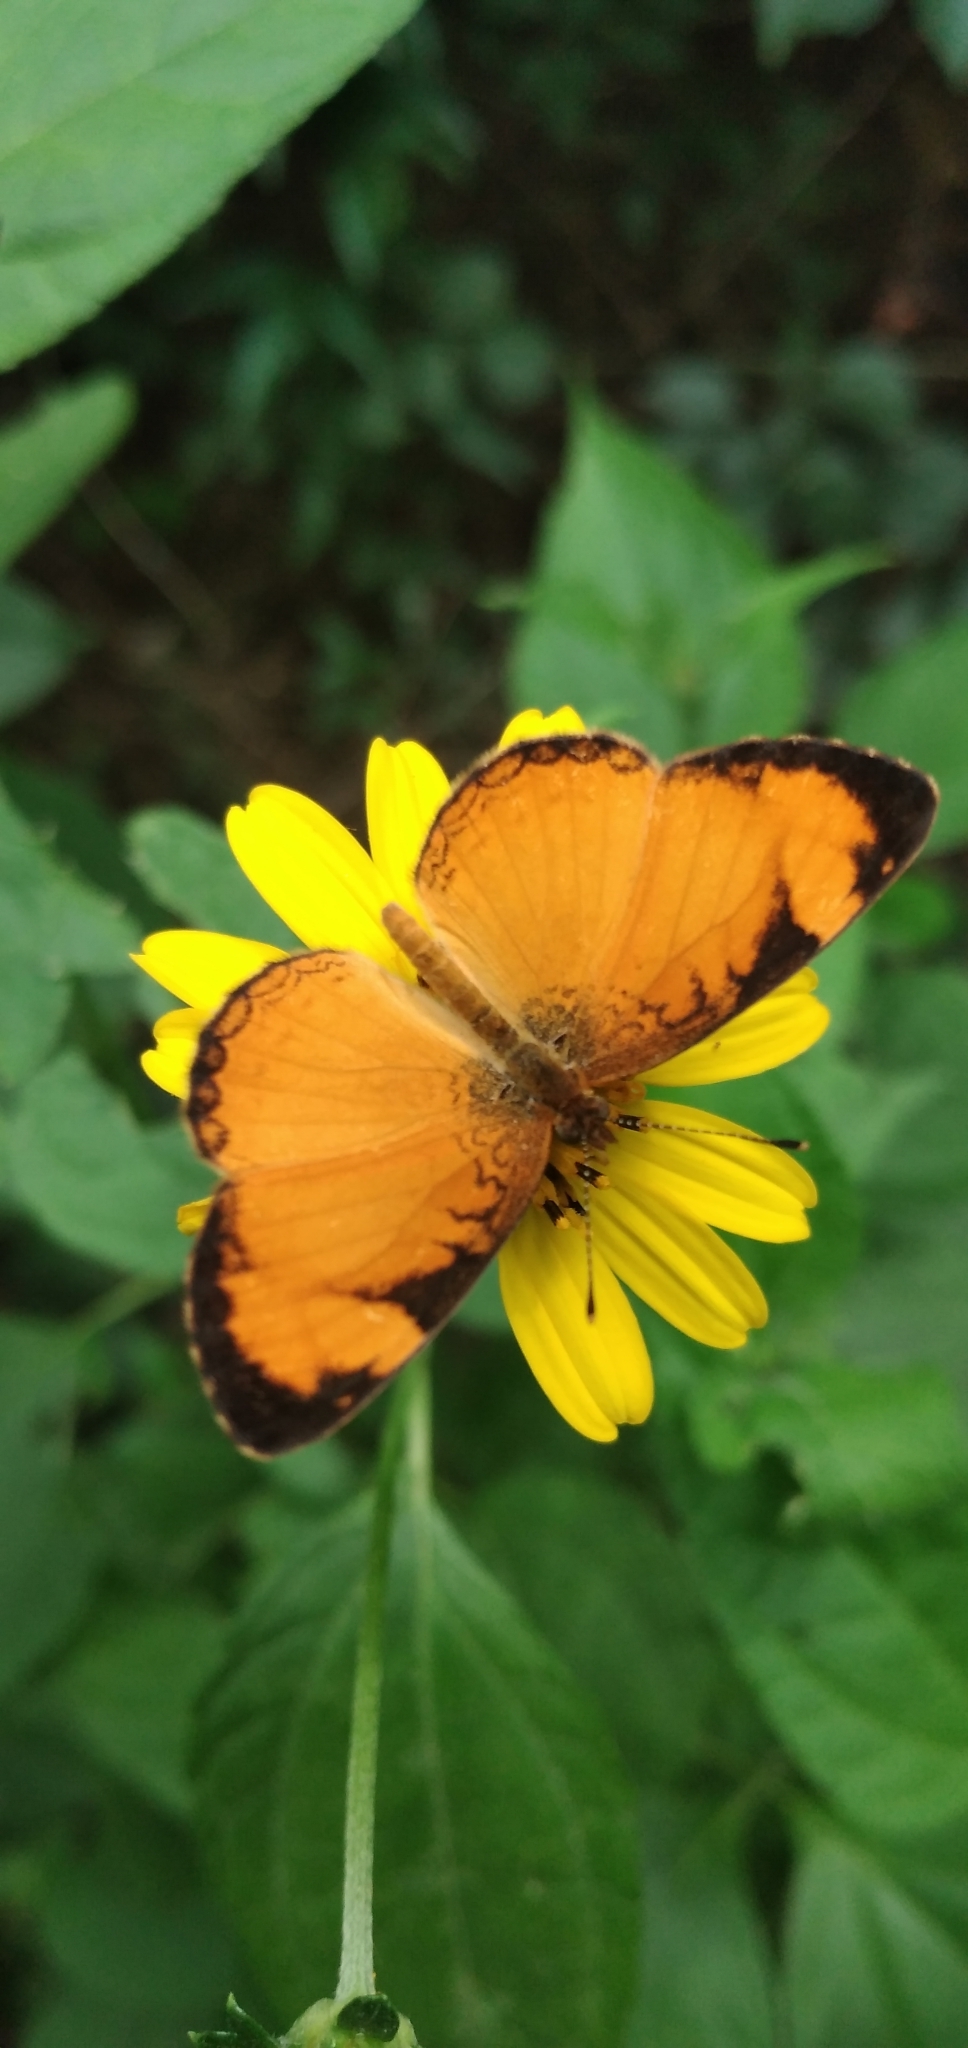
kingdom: Animalia
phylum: Arthropoda
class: Insecta
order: Lepidoptera
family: Nymphalidae
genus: Tegosa
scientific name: Tegosa claudina
